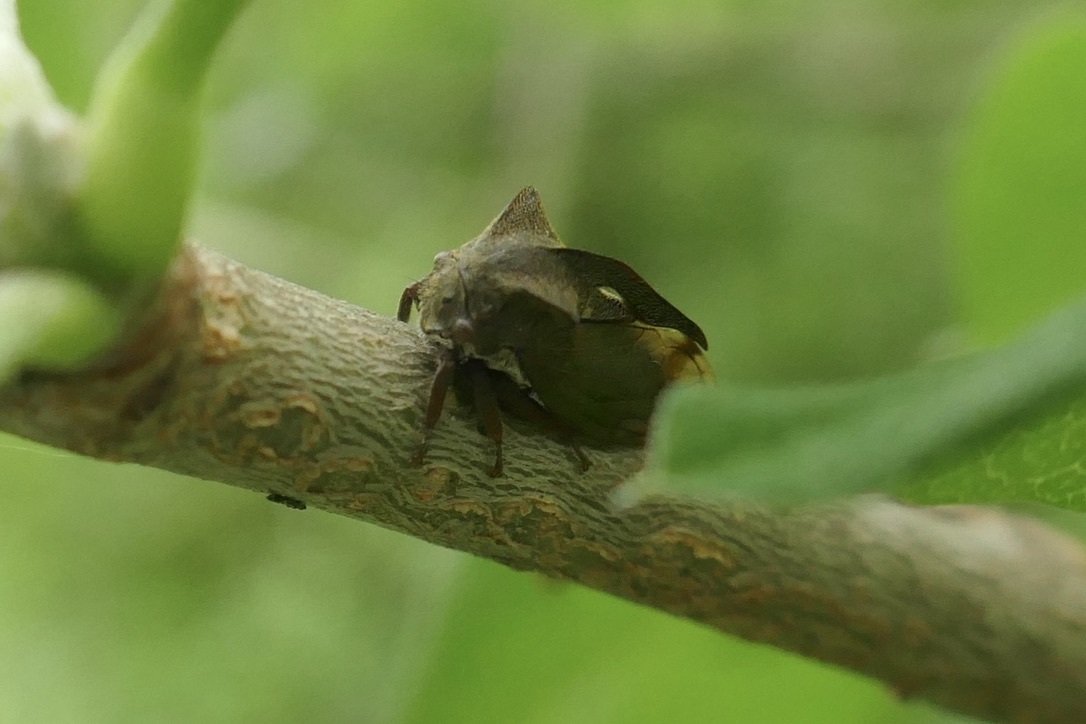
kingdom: Animalia
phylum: Arthropoda
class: Insecta
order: Hemiptera
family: Membracidae
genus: Centrotus
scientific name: Centrotus cornuta
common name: Treehopper
